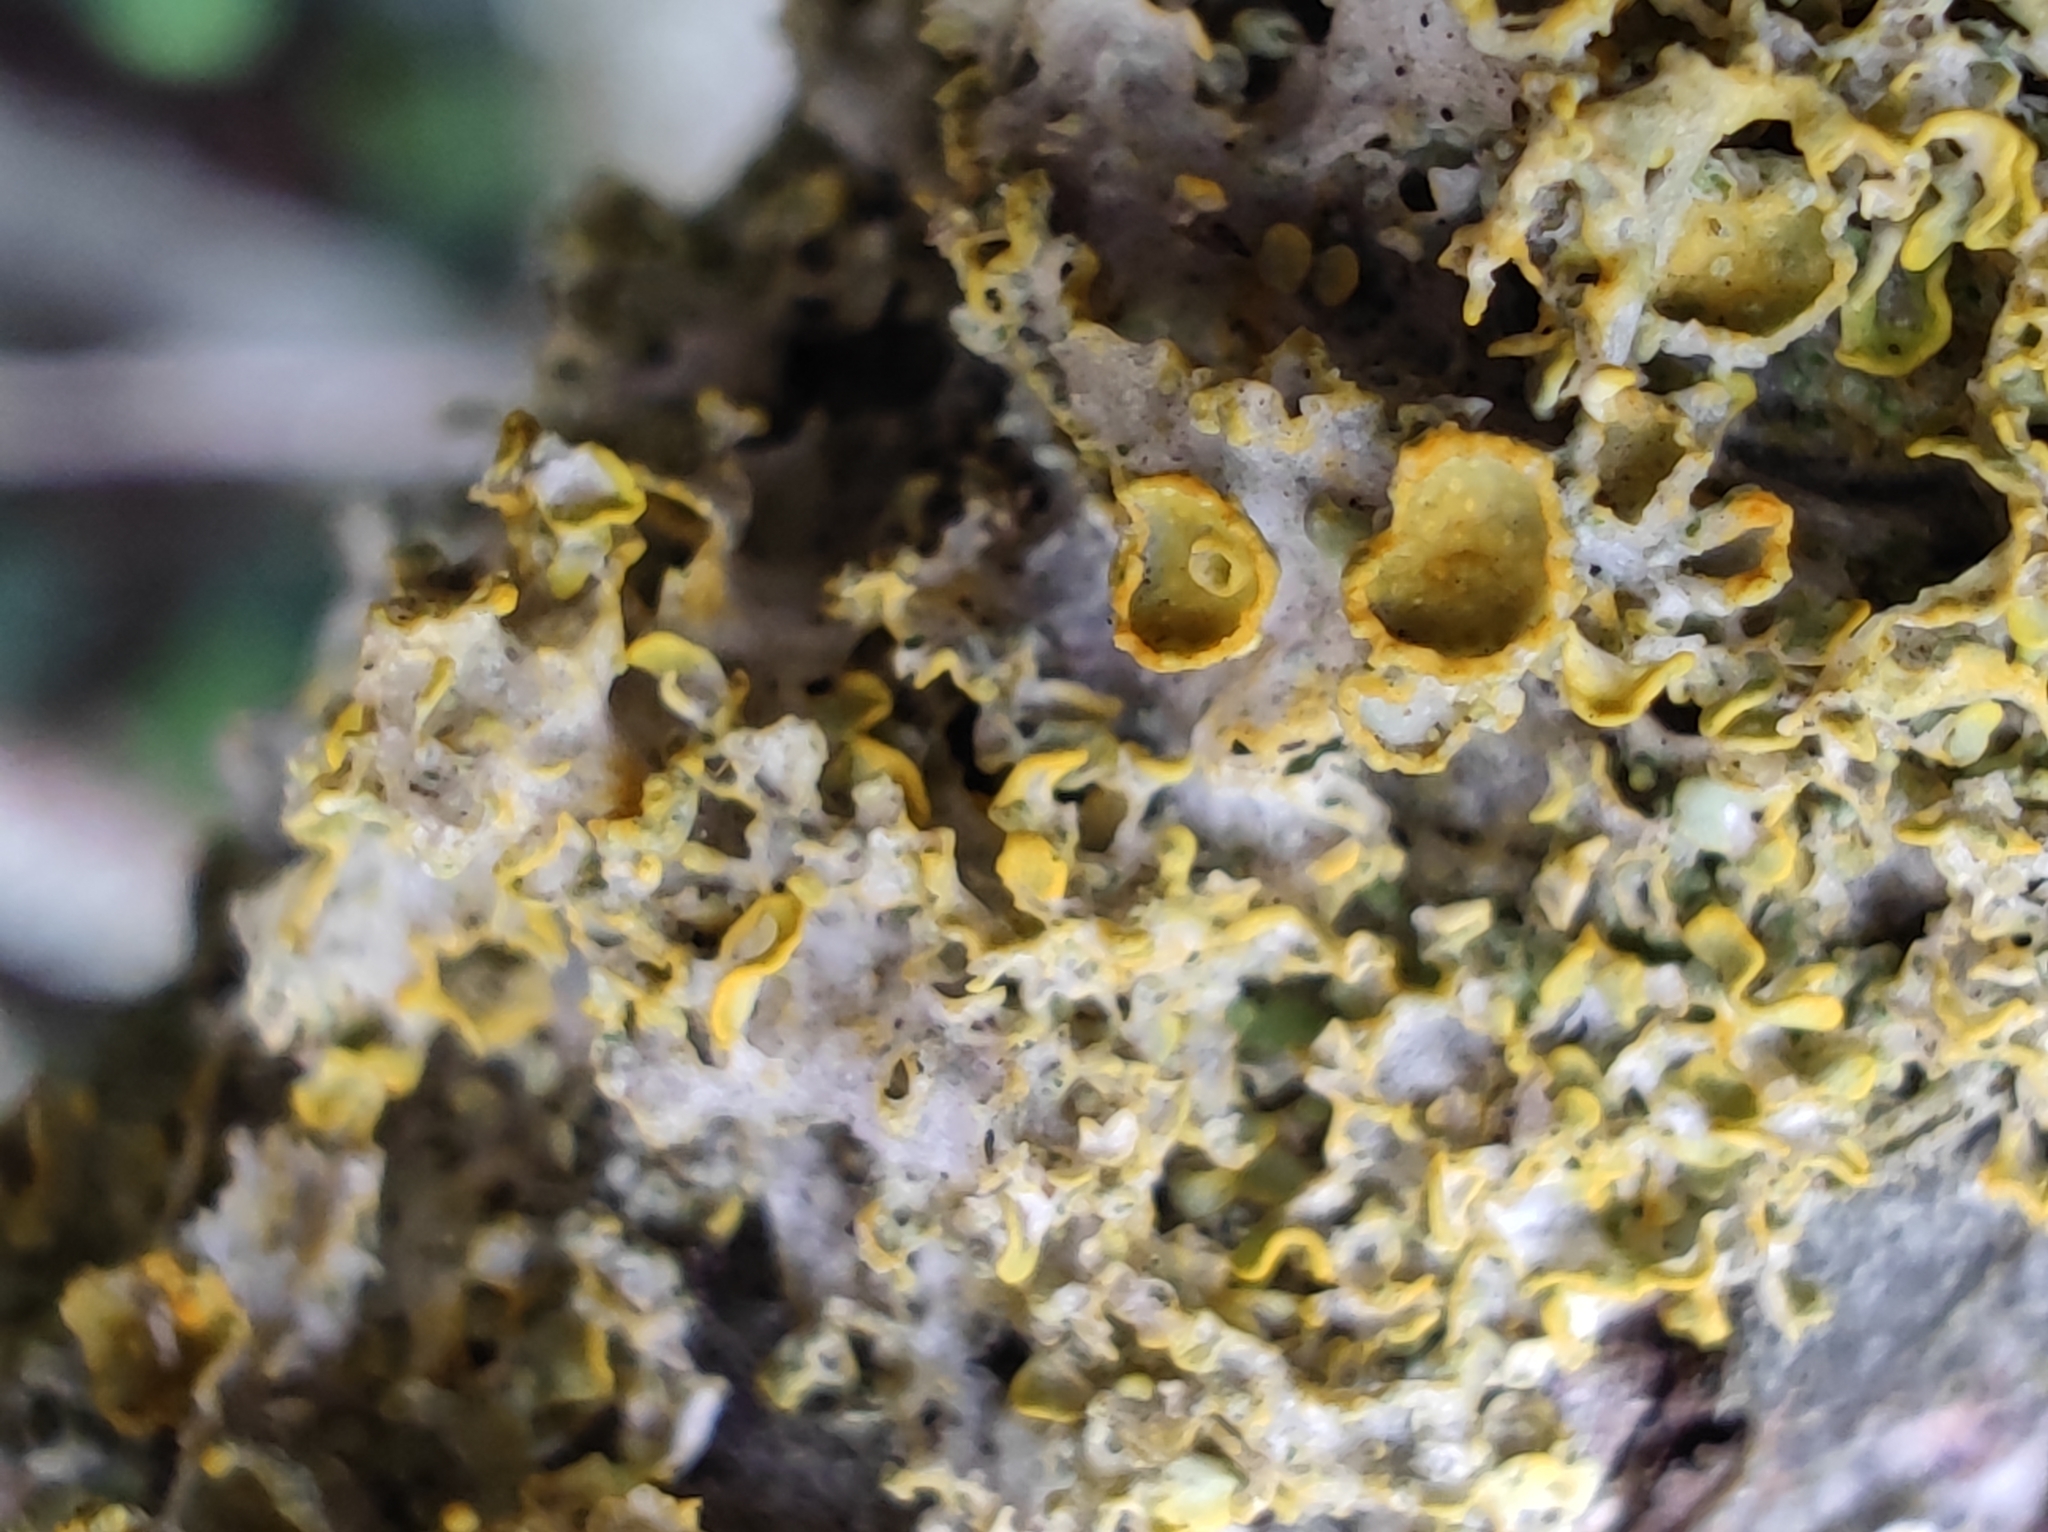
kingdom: Fungi
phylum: Ascomycota
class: Lecanoromycetes
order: Teloschistales
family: Teloschistaceae
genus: Xanthoria
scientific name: Xanthoria parietina
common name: Common orange lichen
